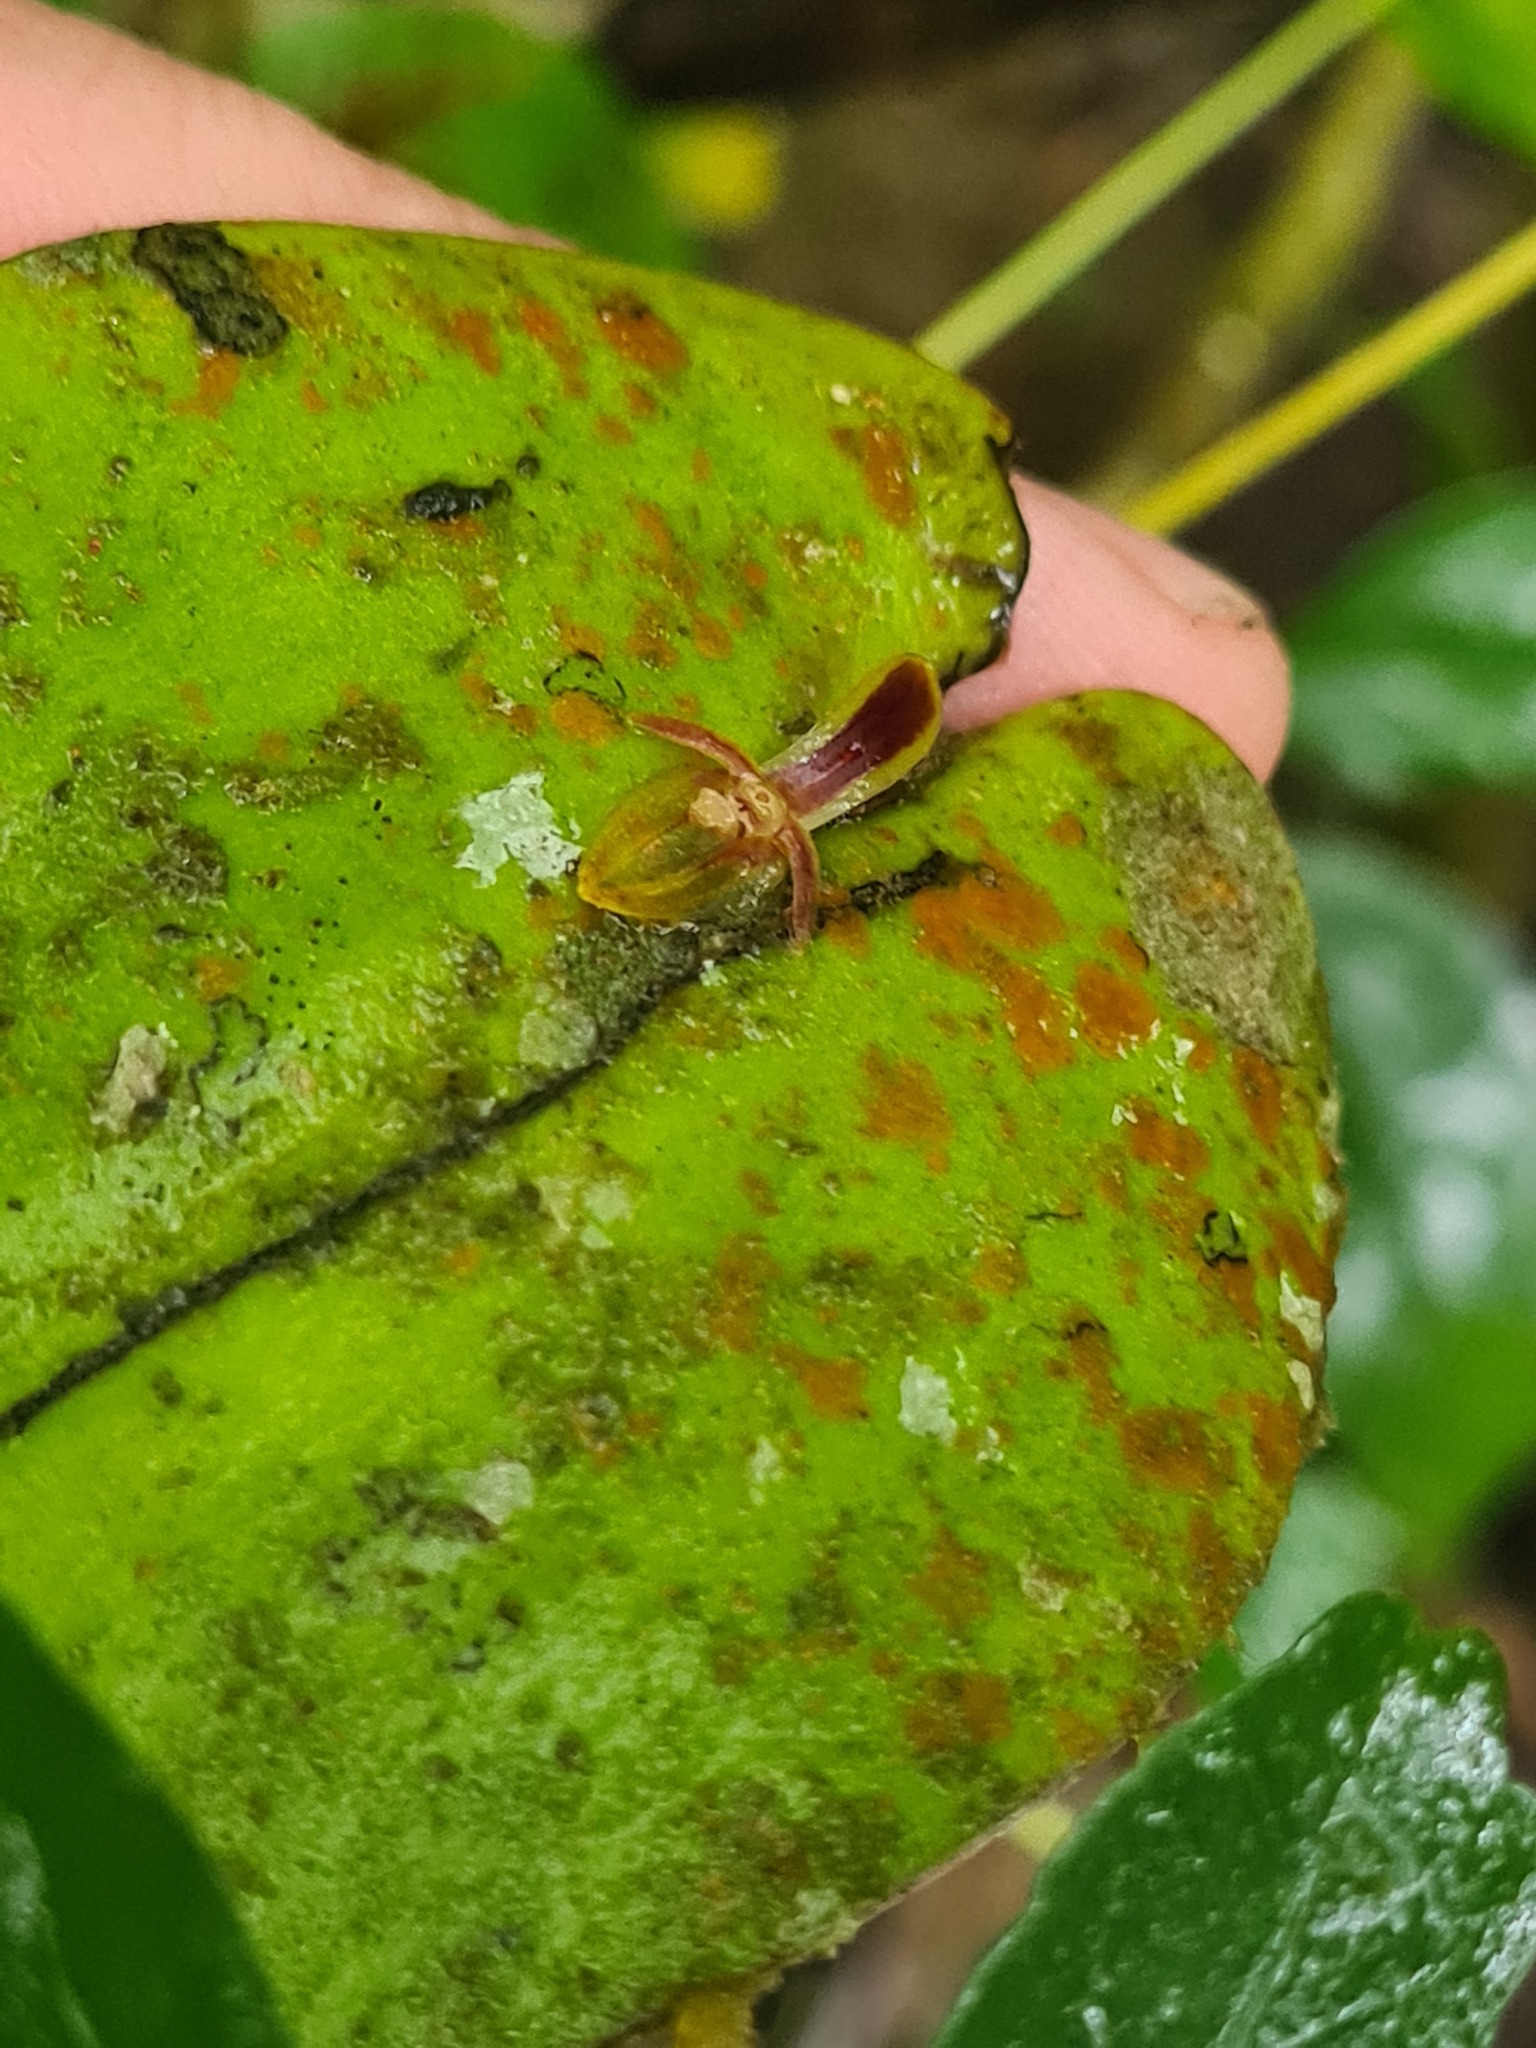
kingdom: Plantae
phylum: Tracheophyta
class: Liliopsida
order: Asparagales
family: Orchidaceae
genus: Pleurothallis
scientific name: Pleurothallis convexa
